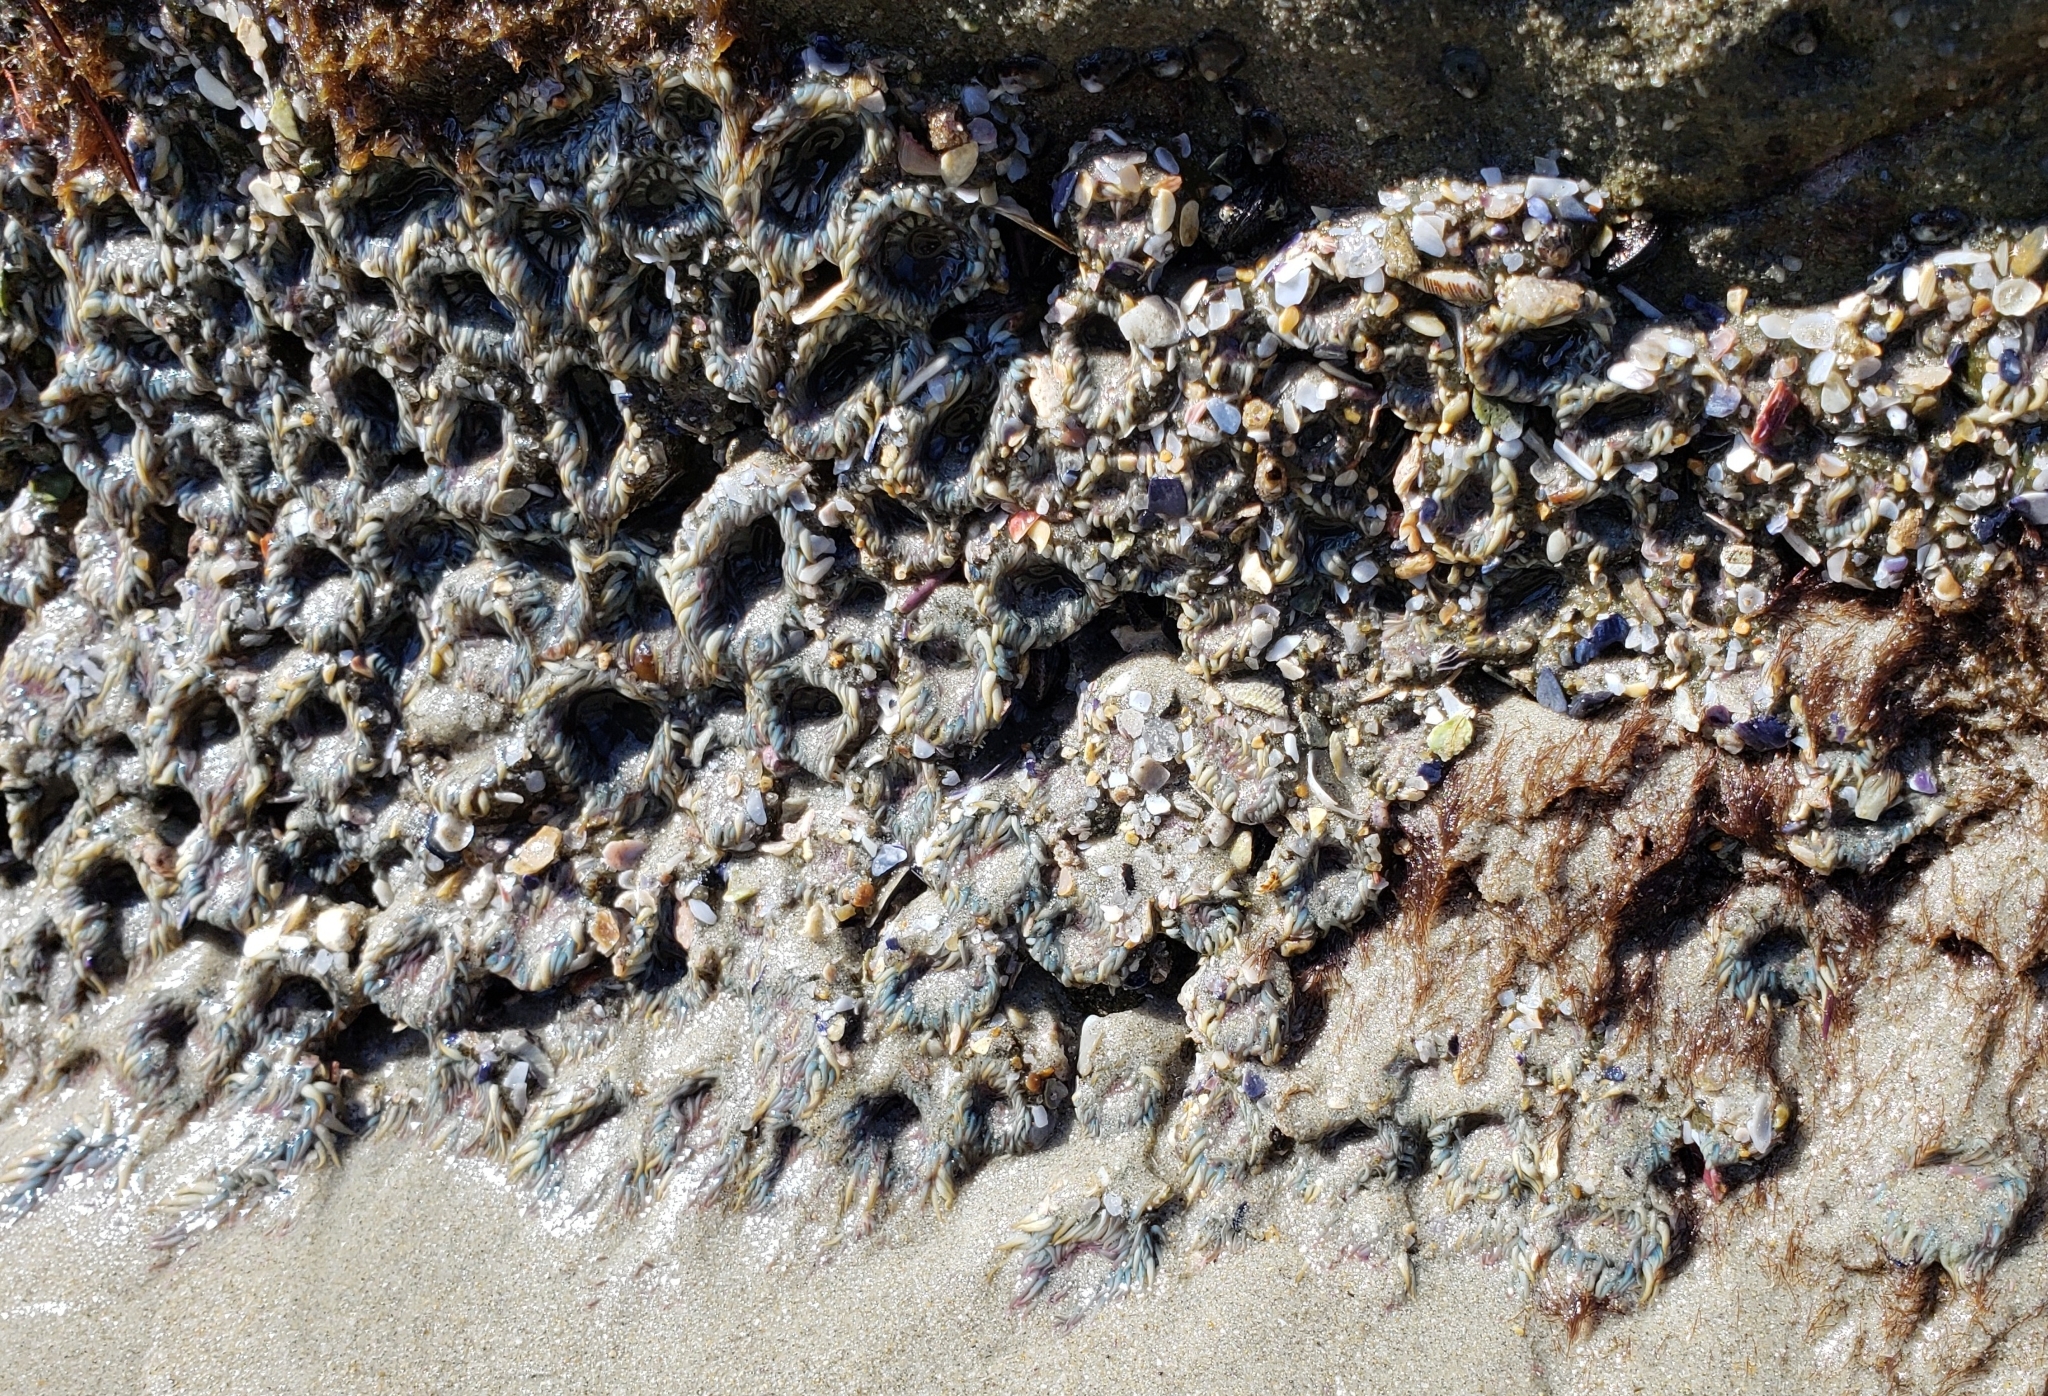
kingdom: Animalia
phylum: Cnidaria
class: Anthozoa
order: Actiniaria
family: Actiniidae
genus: Anthopleura
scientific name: Anthopleura elegantissima
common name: Clonal anemone
